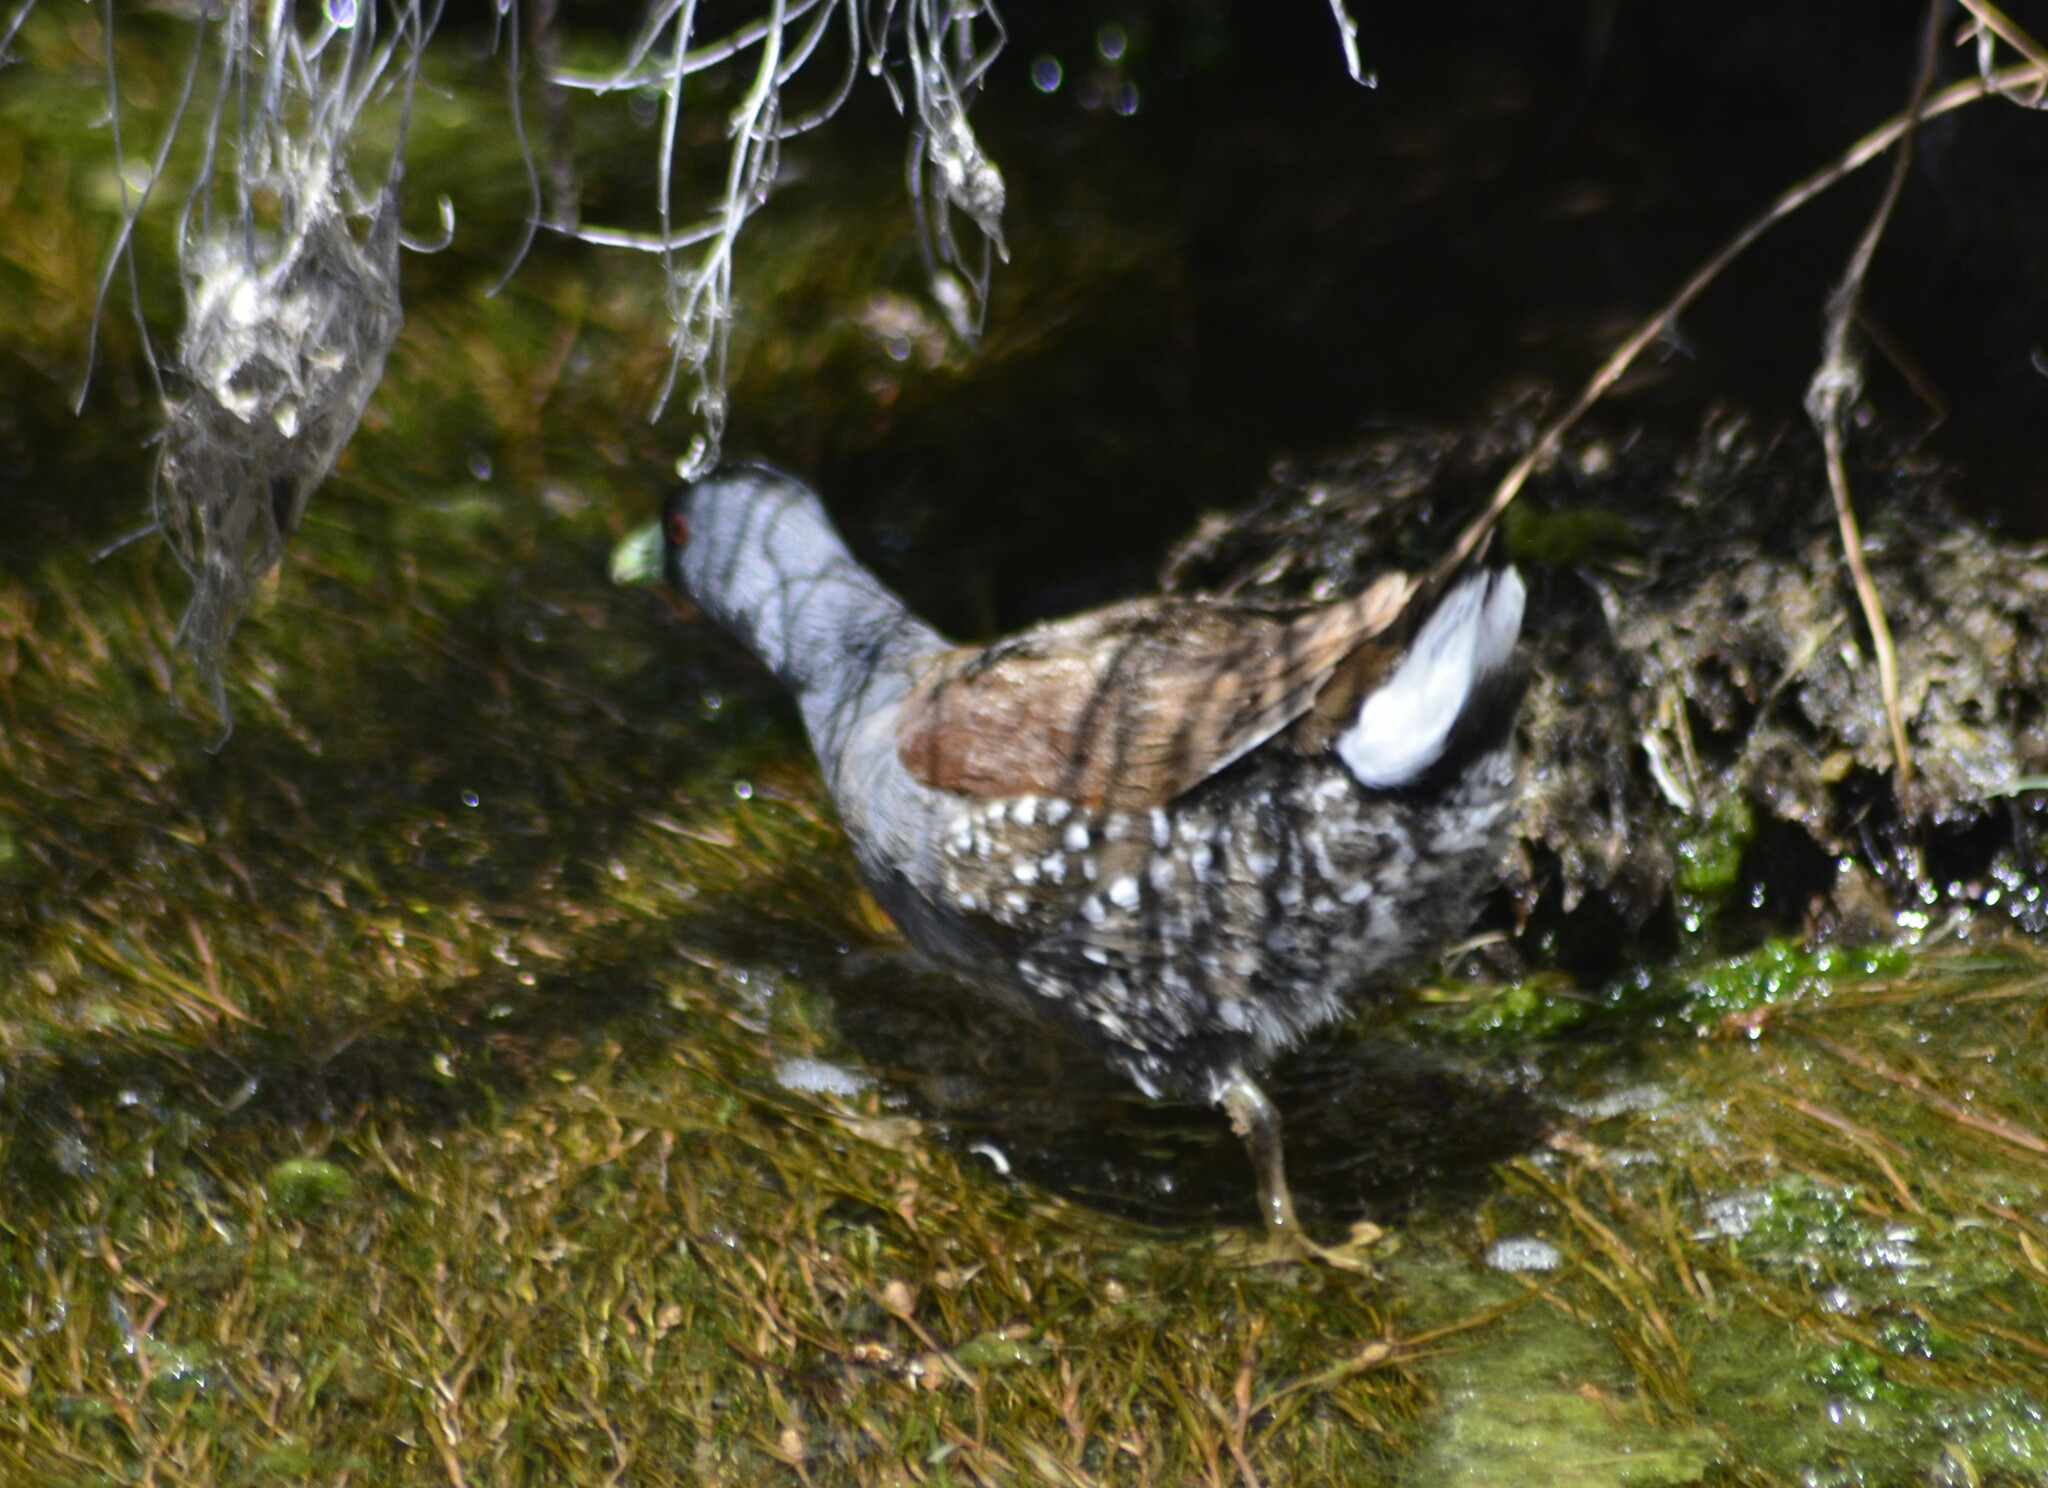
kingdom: Animalia
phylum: Chordata
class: Aves
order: Gruiformes
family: Rallidae
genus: Gallinula
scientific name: Gallinula melanops
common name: Spot-flanked gallinule
